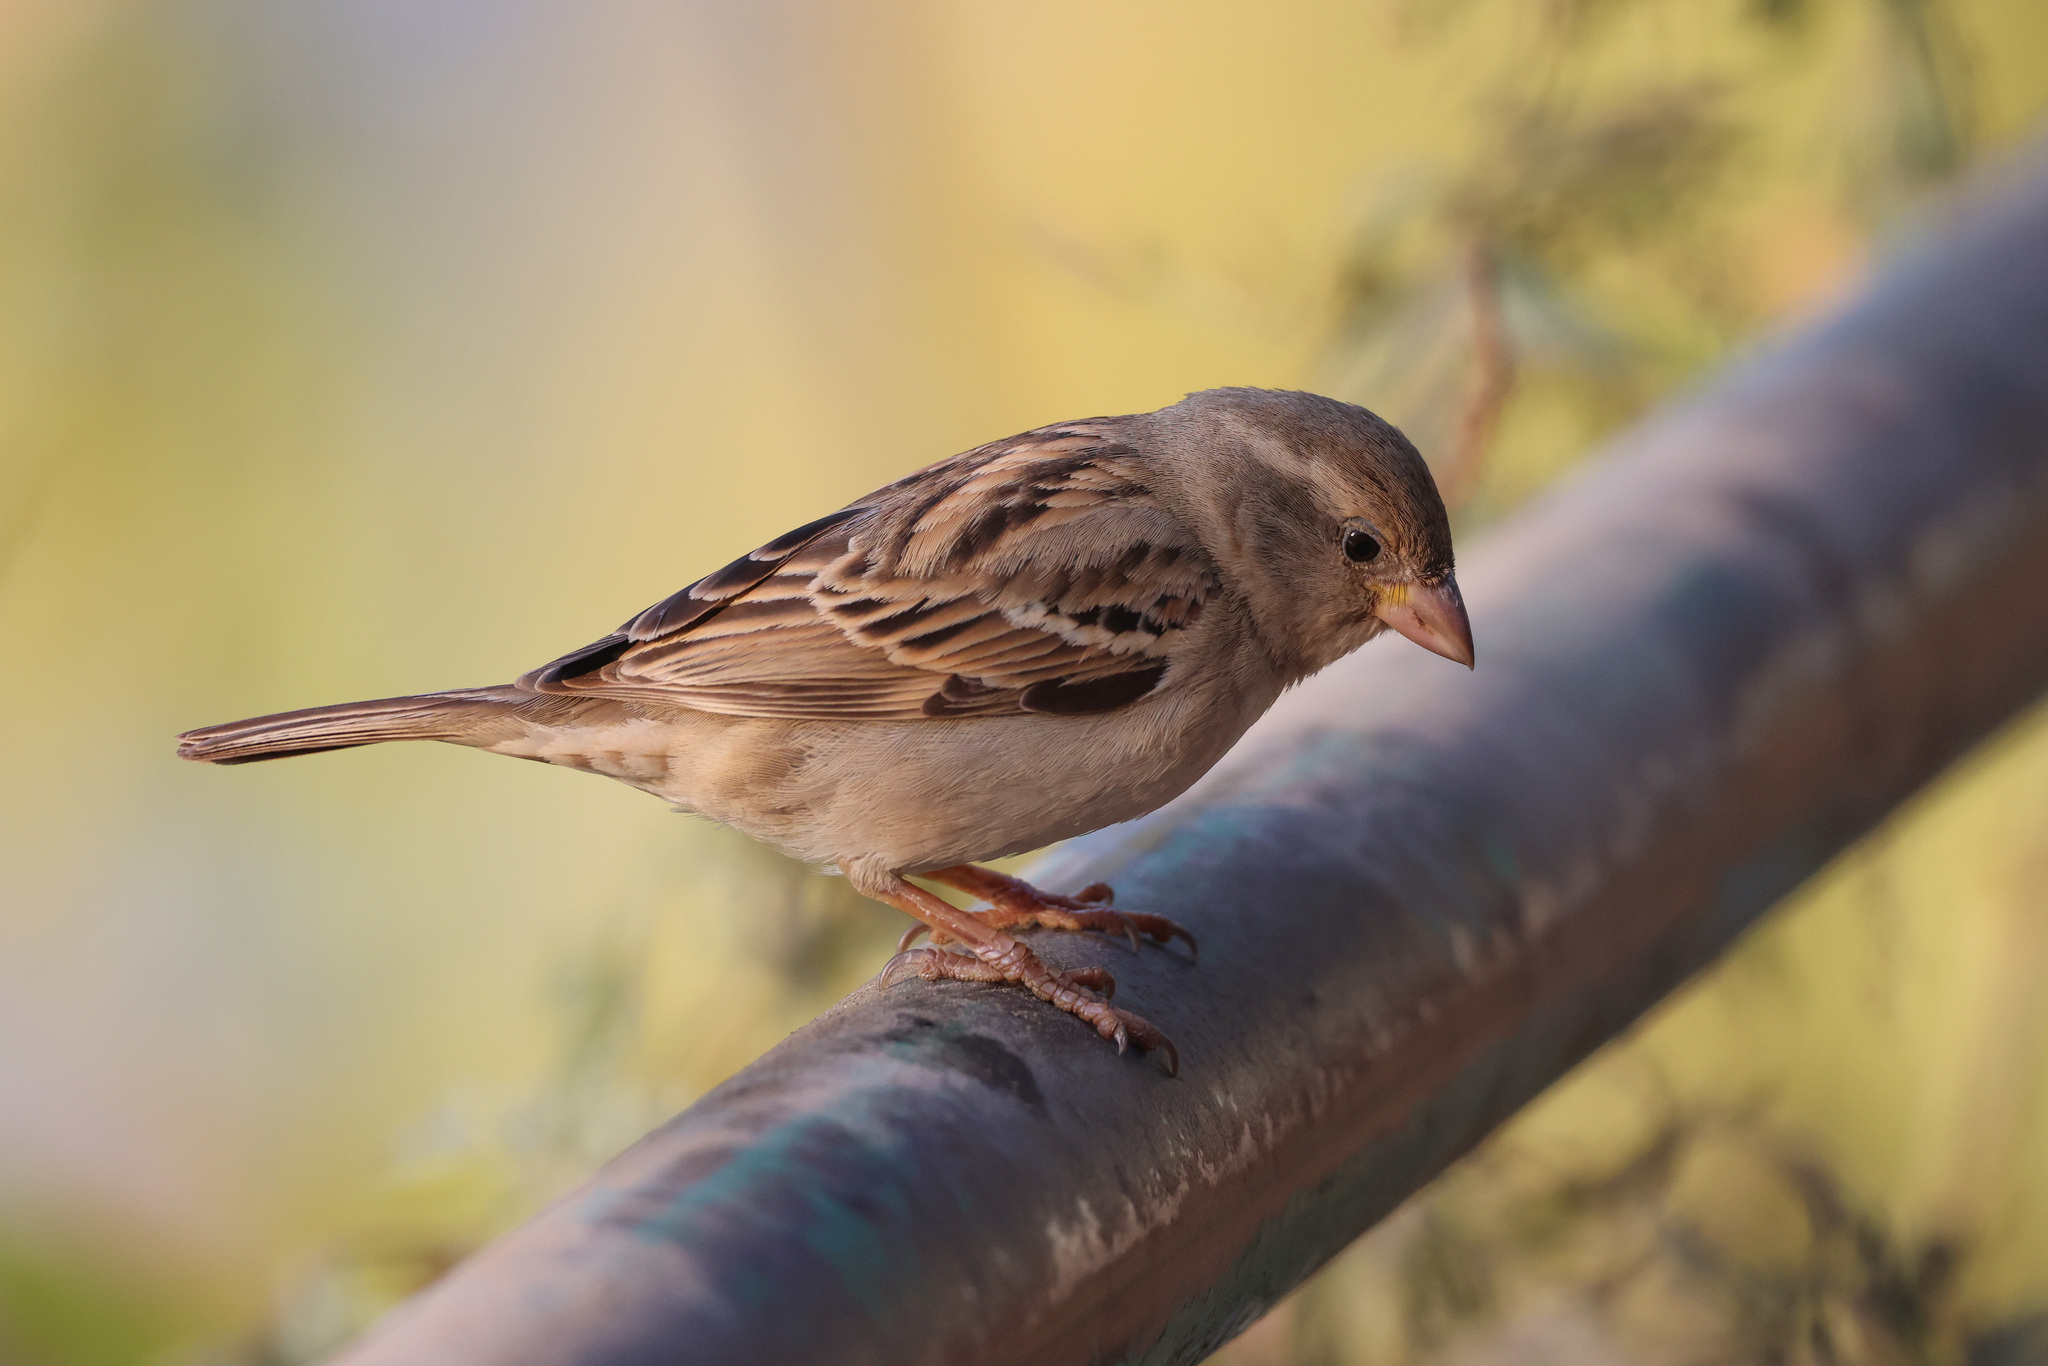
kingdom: Animalia
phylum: Chordata
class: Aves
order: Passeriformes
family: Passeridae
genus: Passer
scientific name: Passer domesticus
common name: House sparrow
